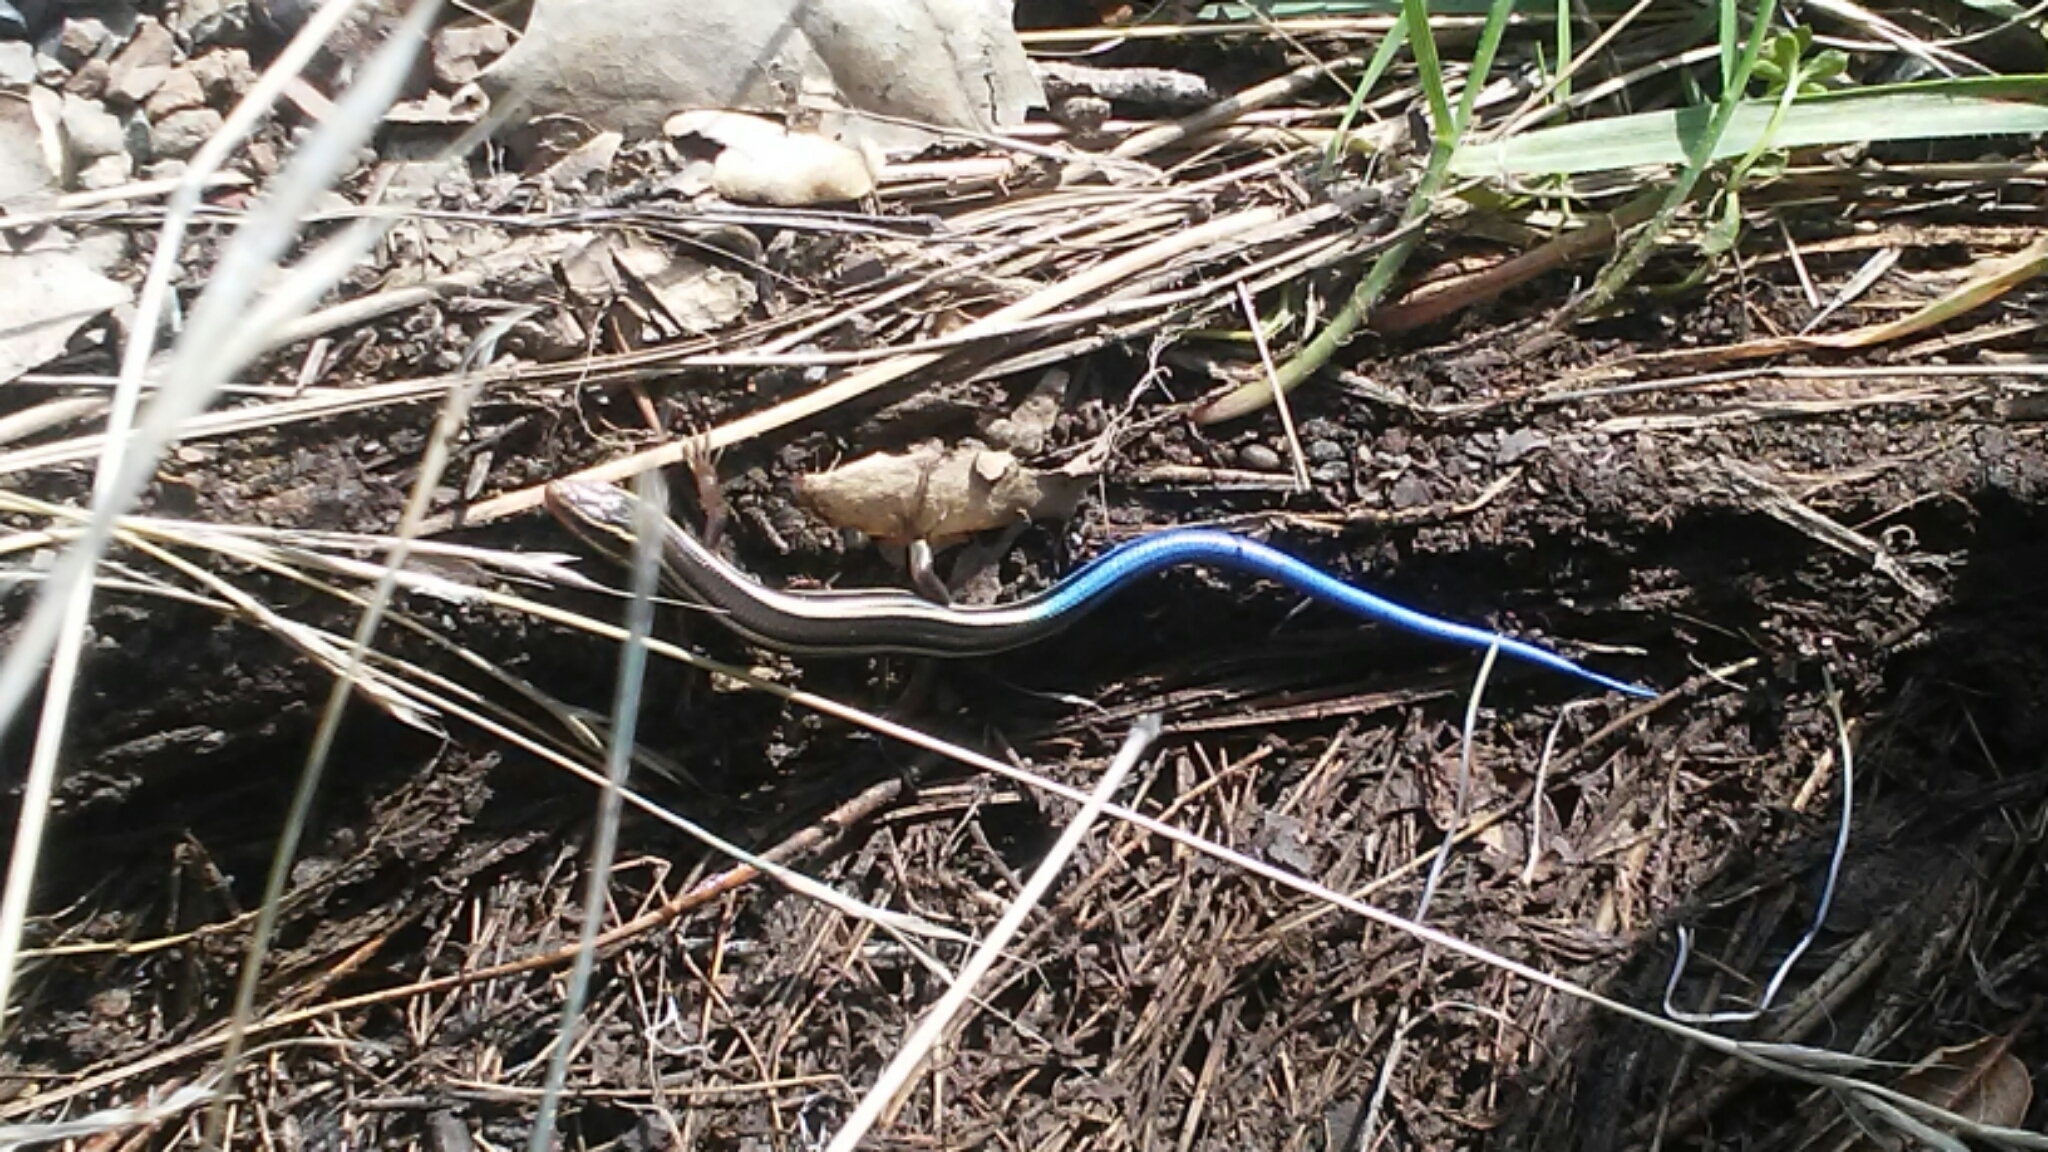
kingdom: Animalia
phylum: Chordata
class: Squamata
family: Scincidae
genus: Plestiodon
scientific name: Plestiodon skiltonianus
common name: Coronado island skink [interparietalis]
